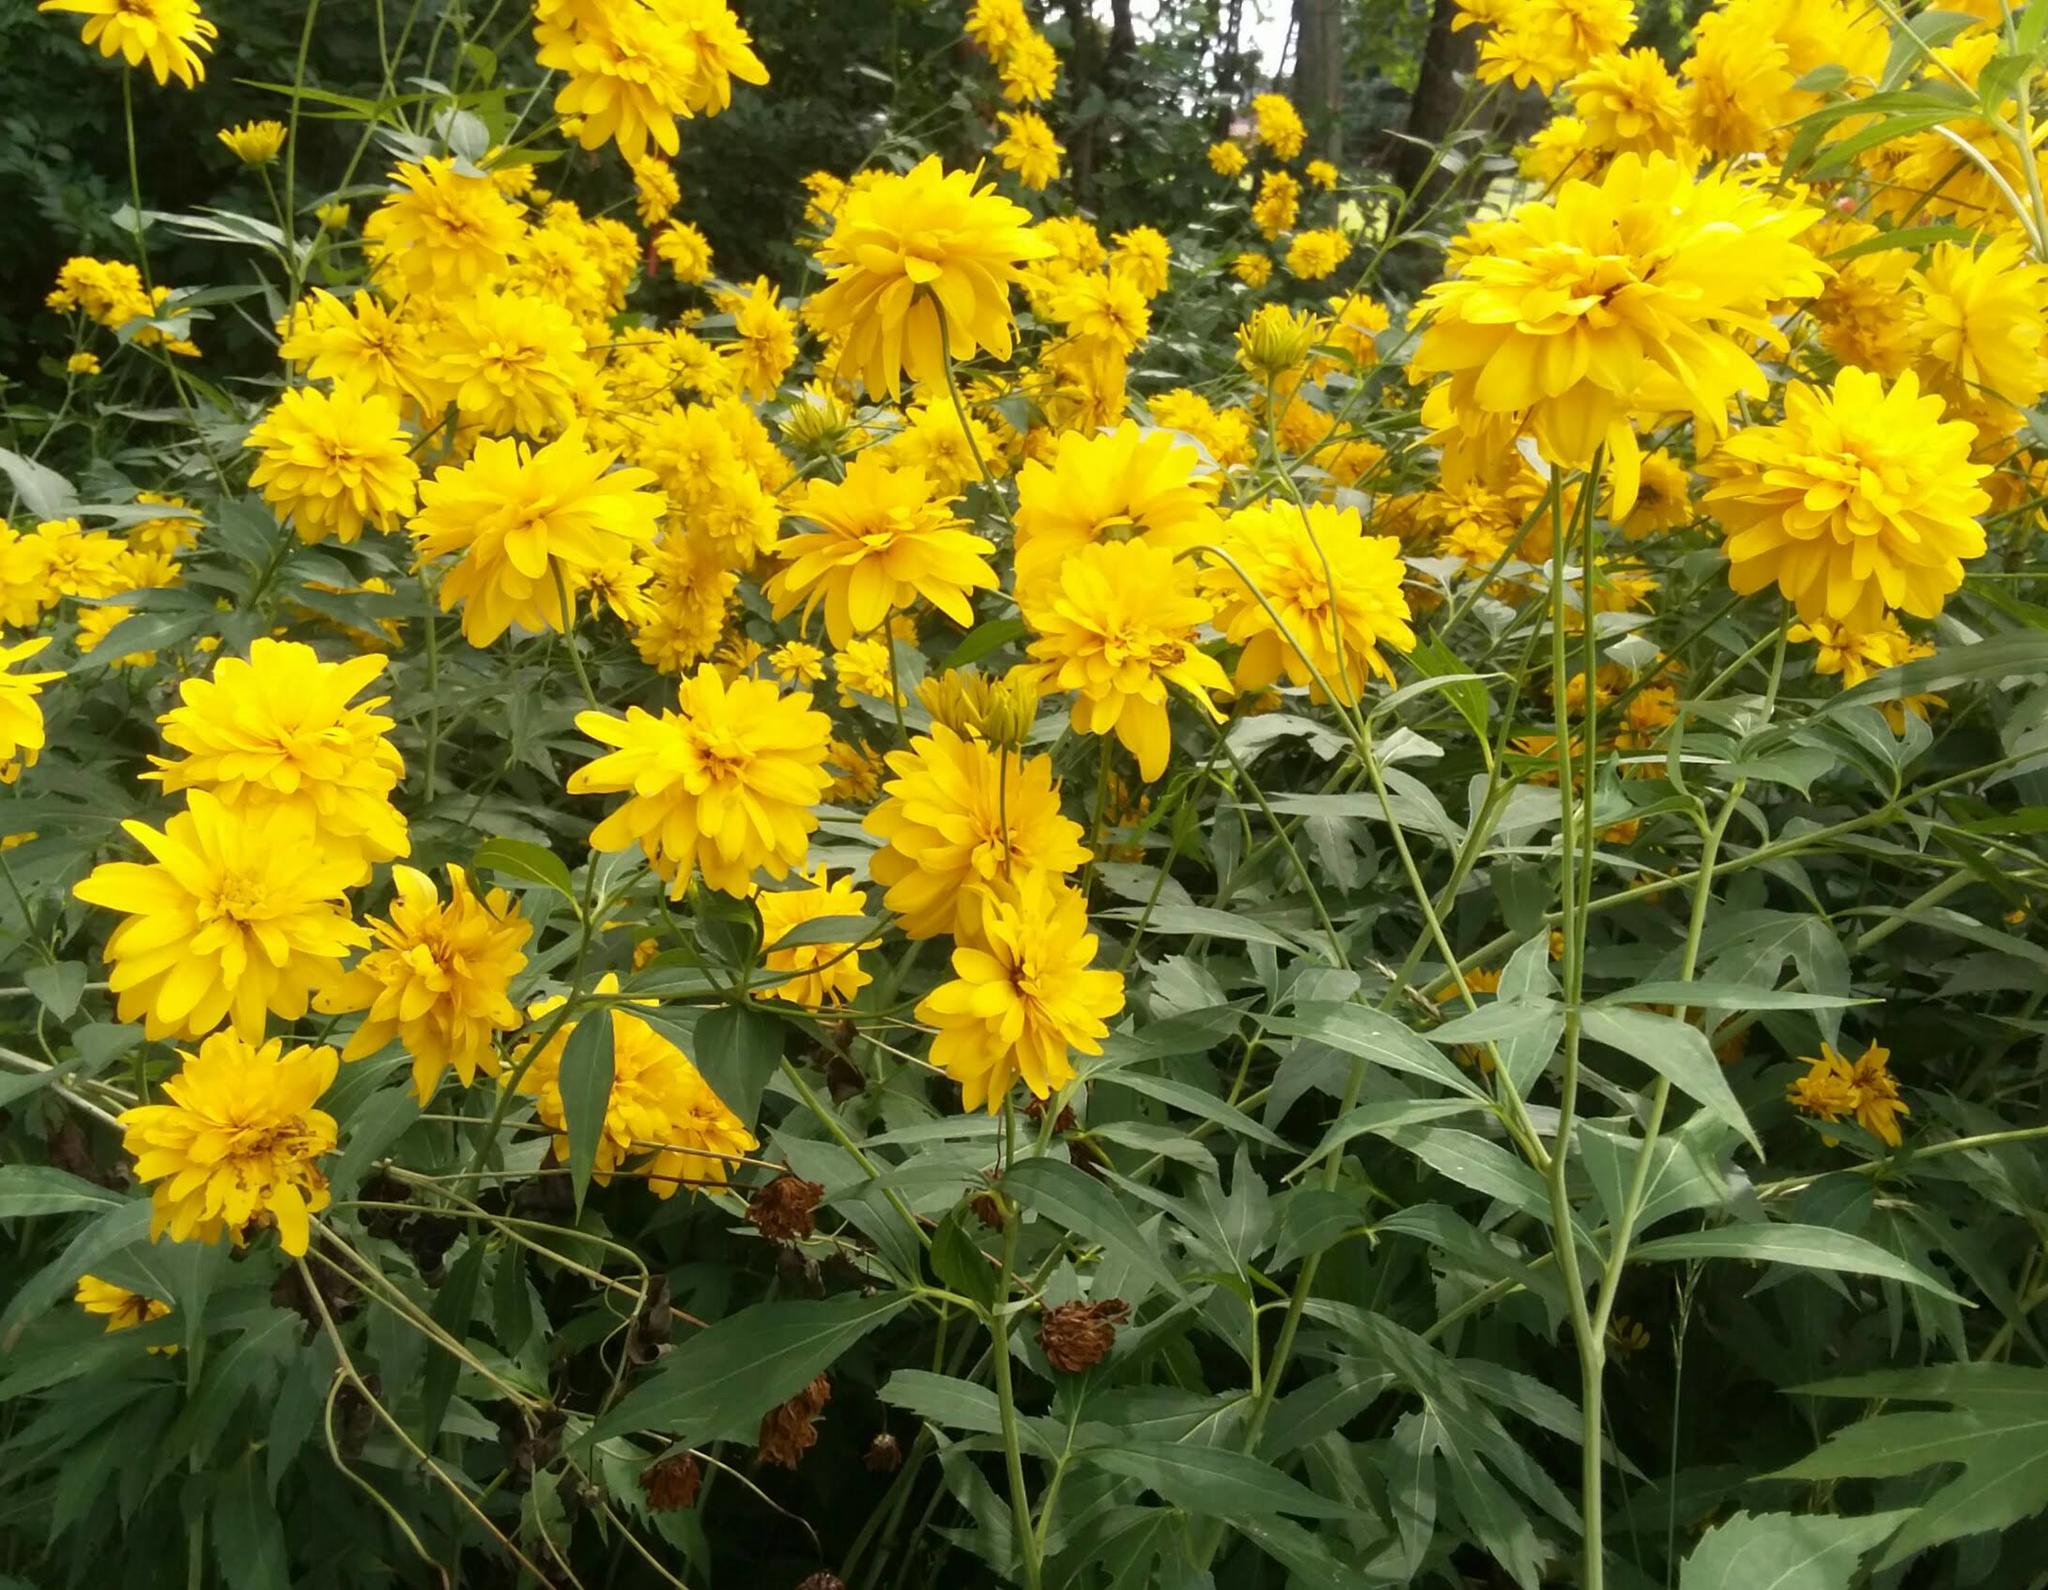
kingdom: Plantae
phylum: Tracheophyta
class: Magnoliopsida
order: Asterales
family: Asteraceae
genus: Rudbeckia
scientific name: Rudbeckia laciniata
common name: Coneflower
